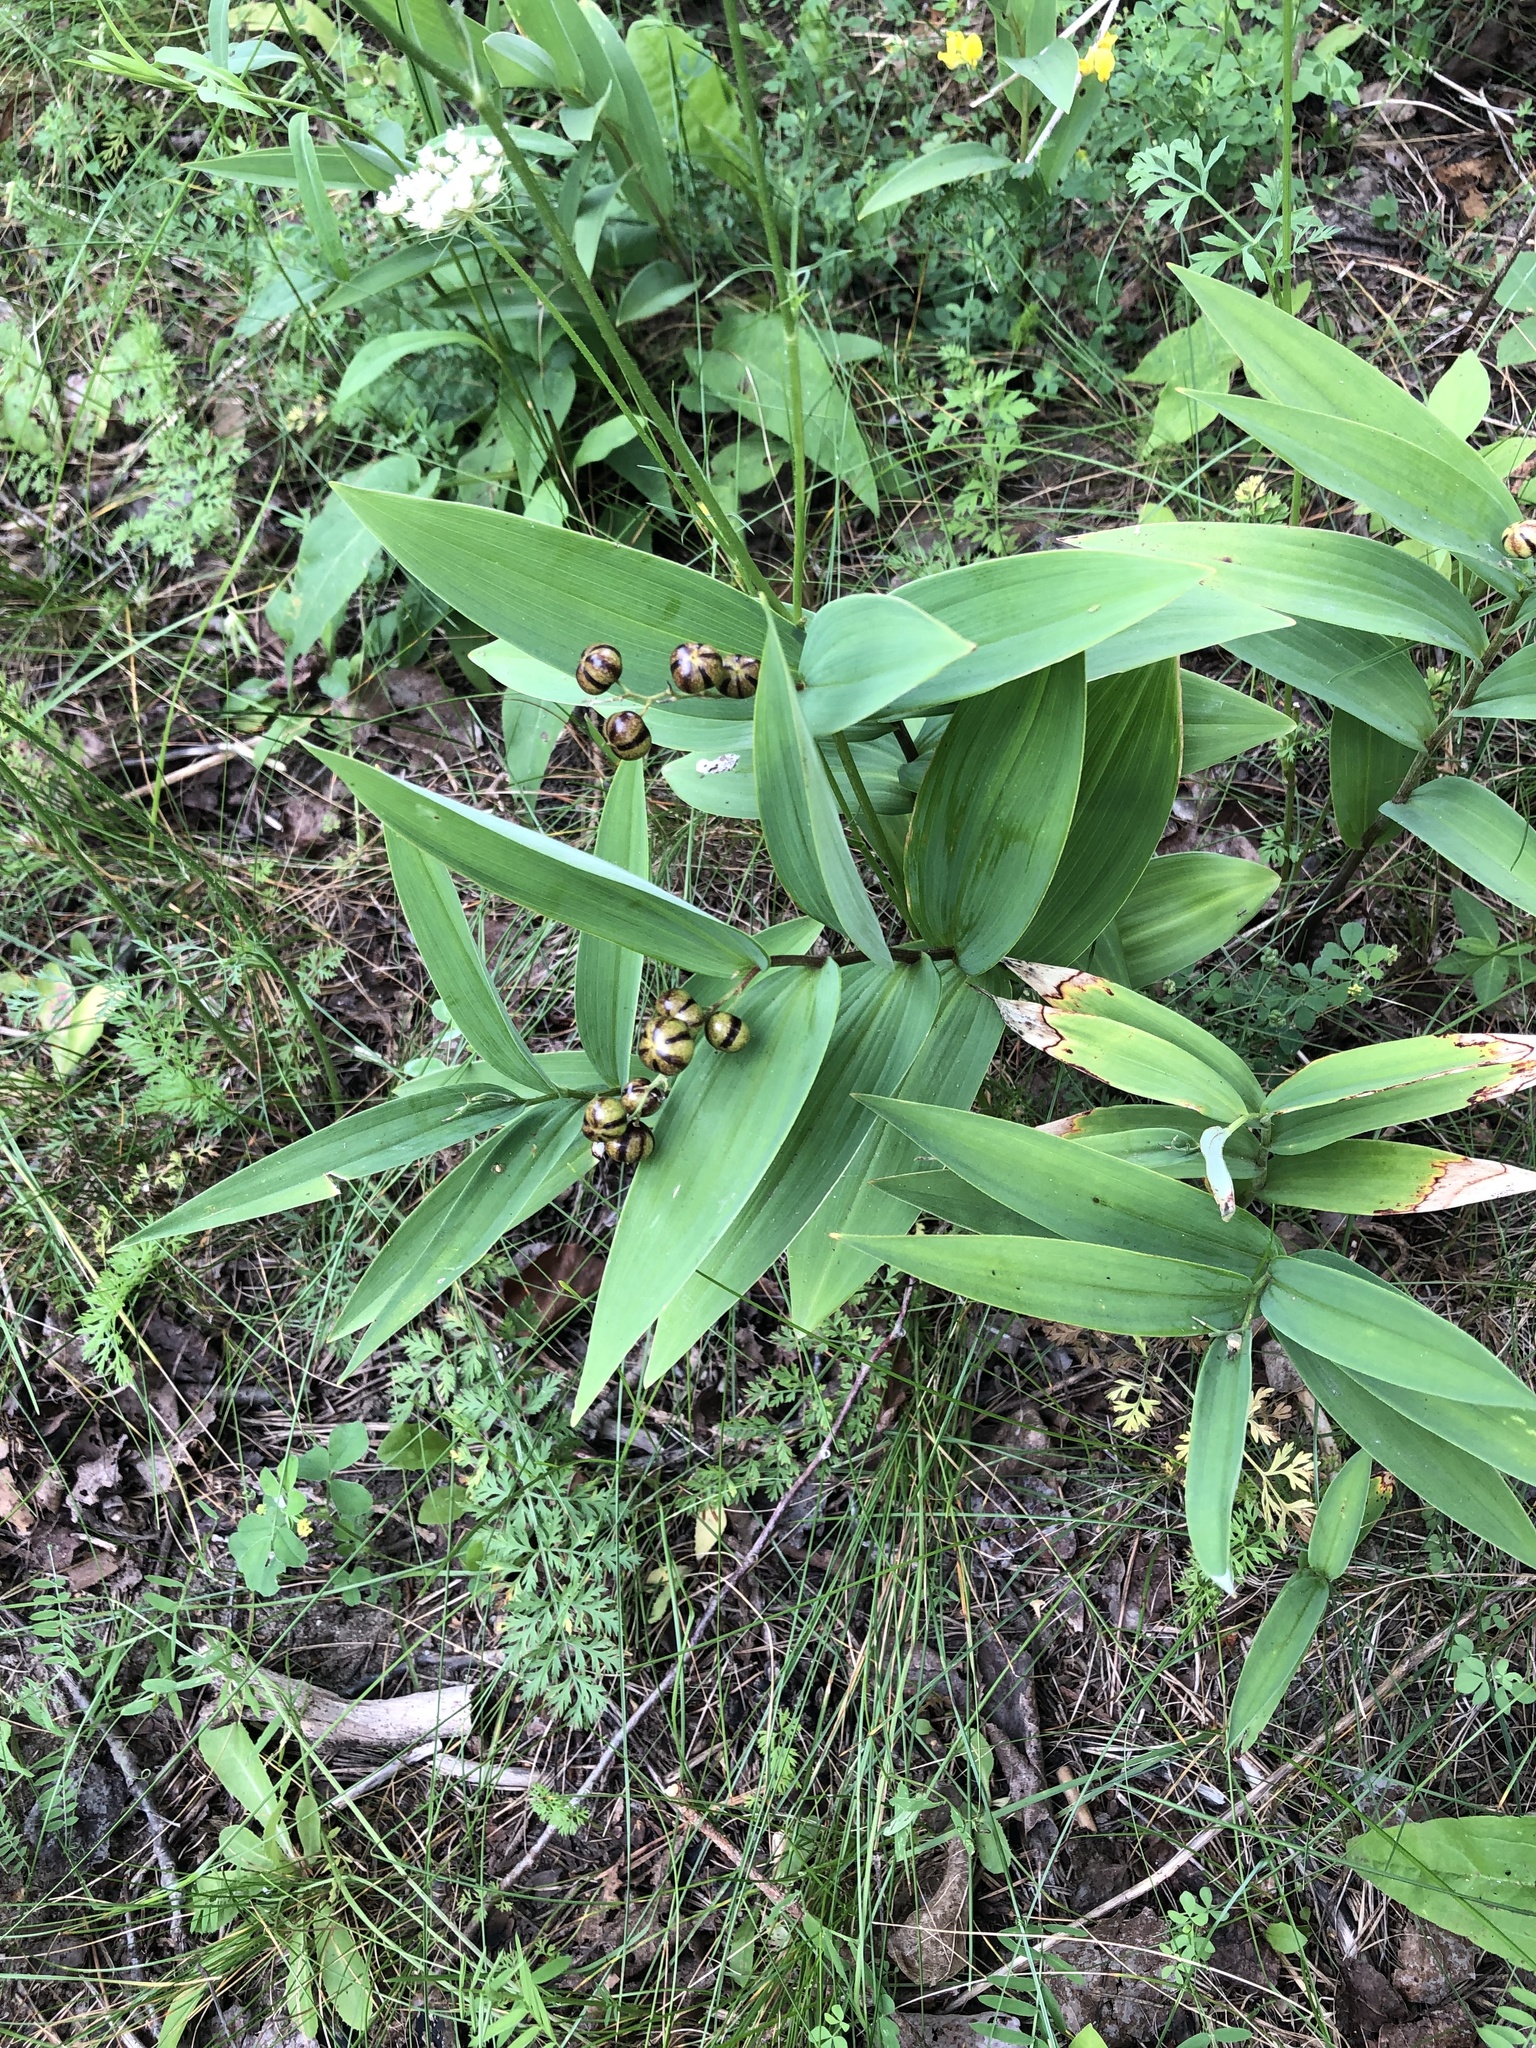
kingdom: Plantae
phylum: Tracheophyta
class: Liliopsida
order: Asparagales
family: Asparagaceae
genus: Maianthemum
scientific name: Maianthemum stellatum
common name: Little false solomon's seal
